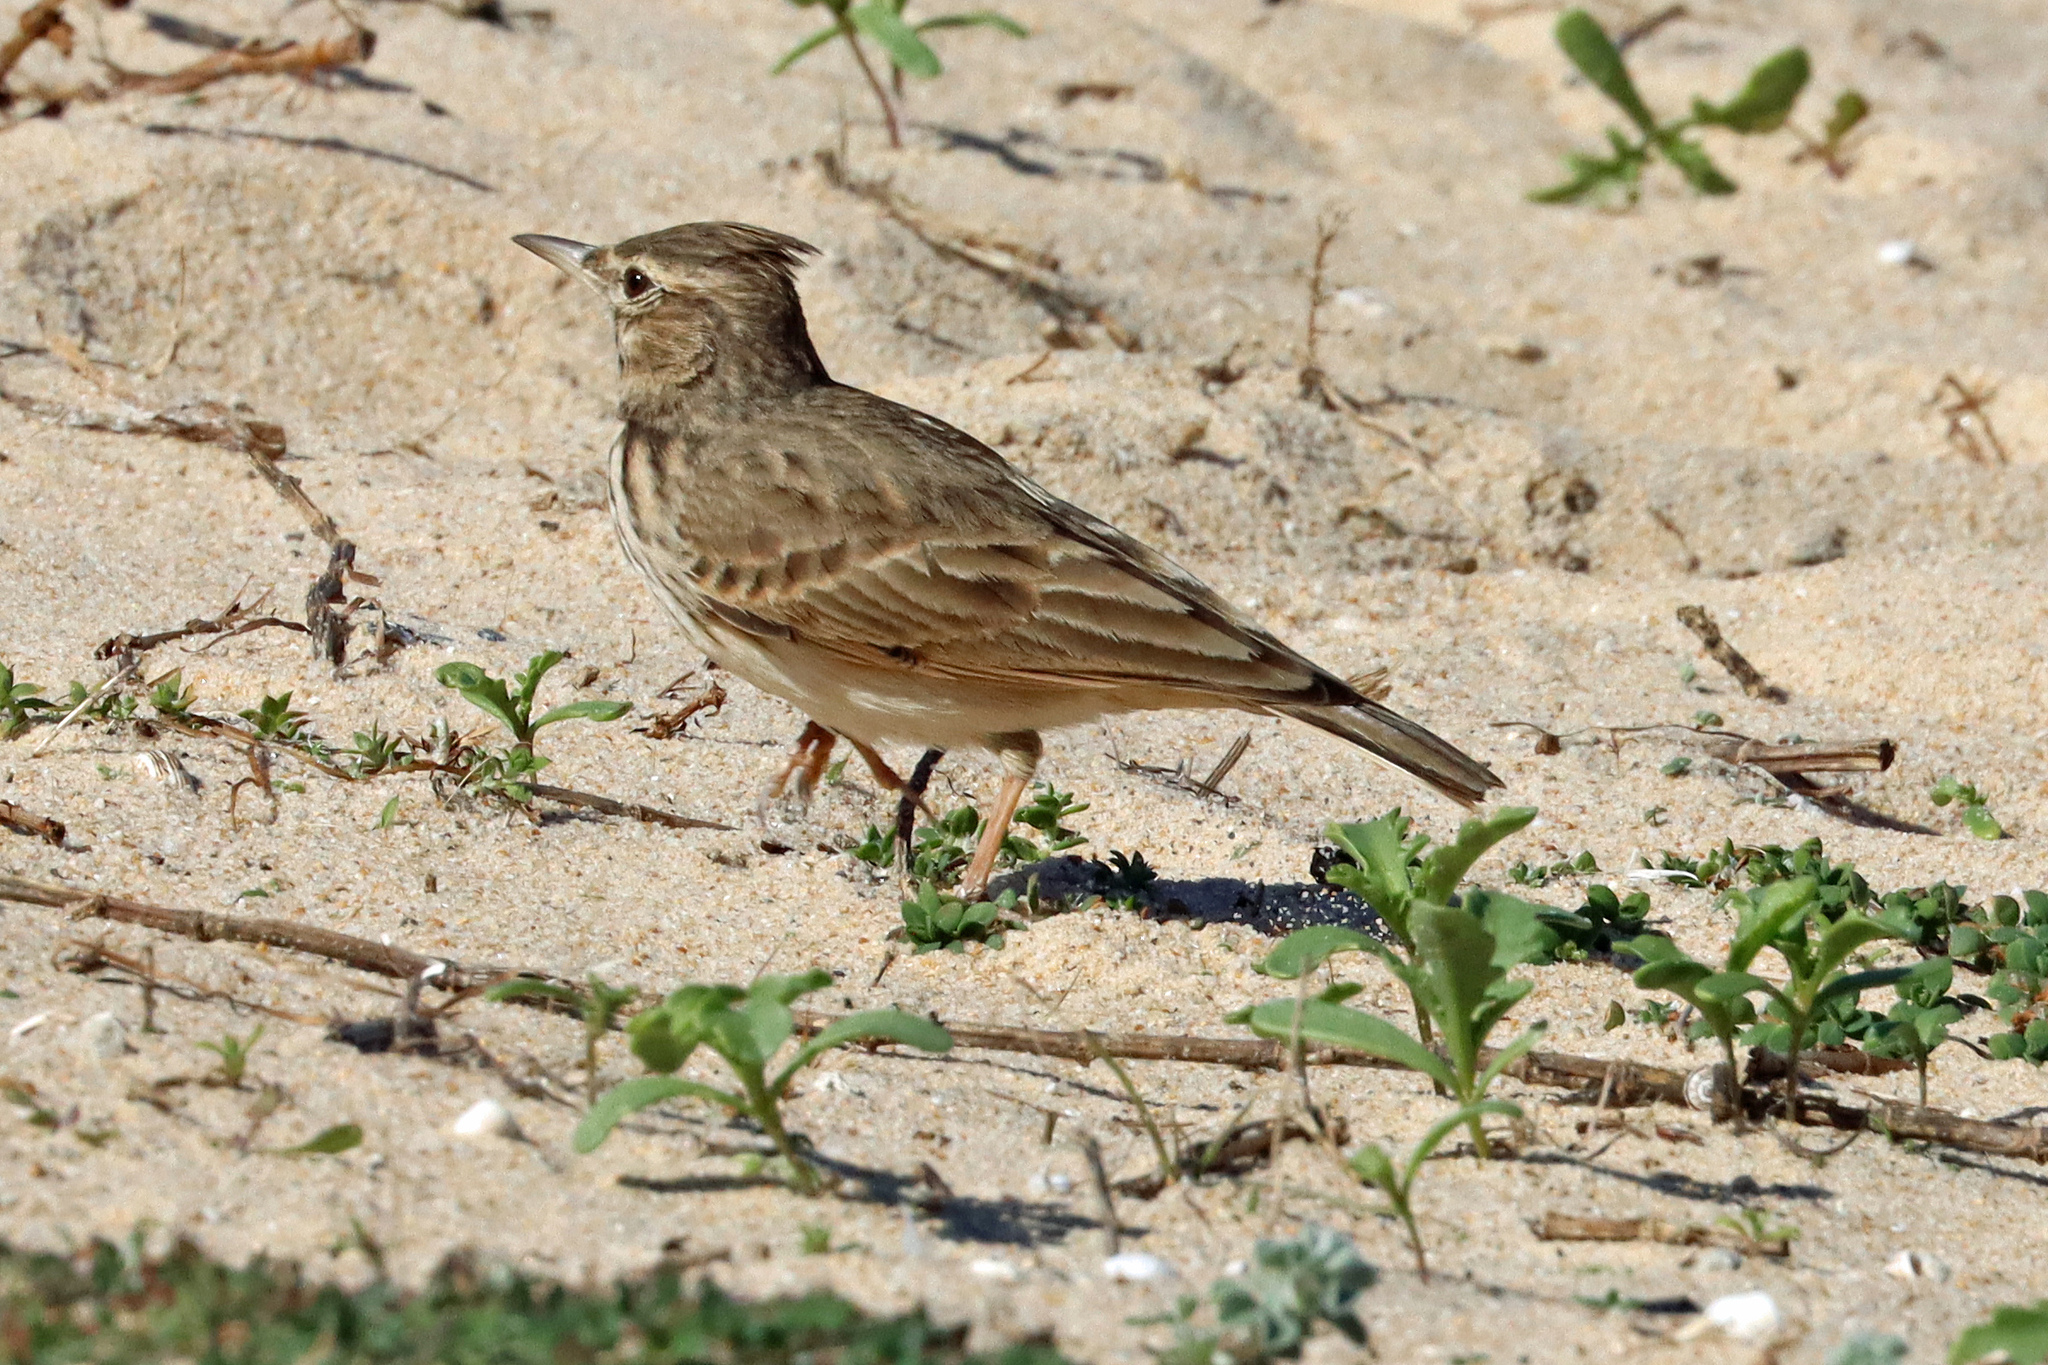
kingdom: Animalia
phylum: Chordata
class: Aves
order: Passeriformes
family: Alaudidae
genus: Galerida
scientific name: Galerida cristata
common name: Crested lark
